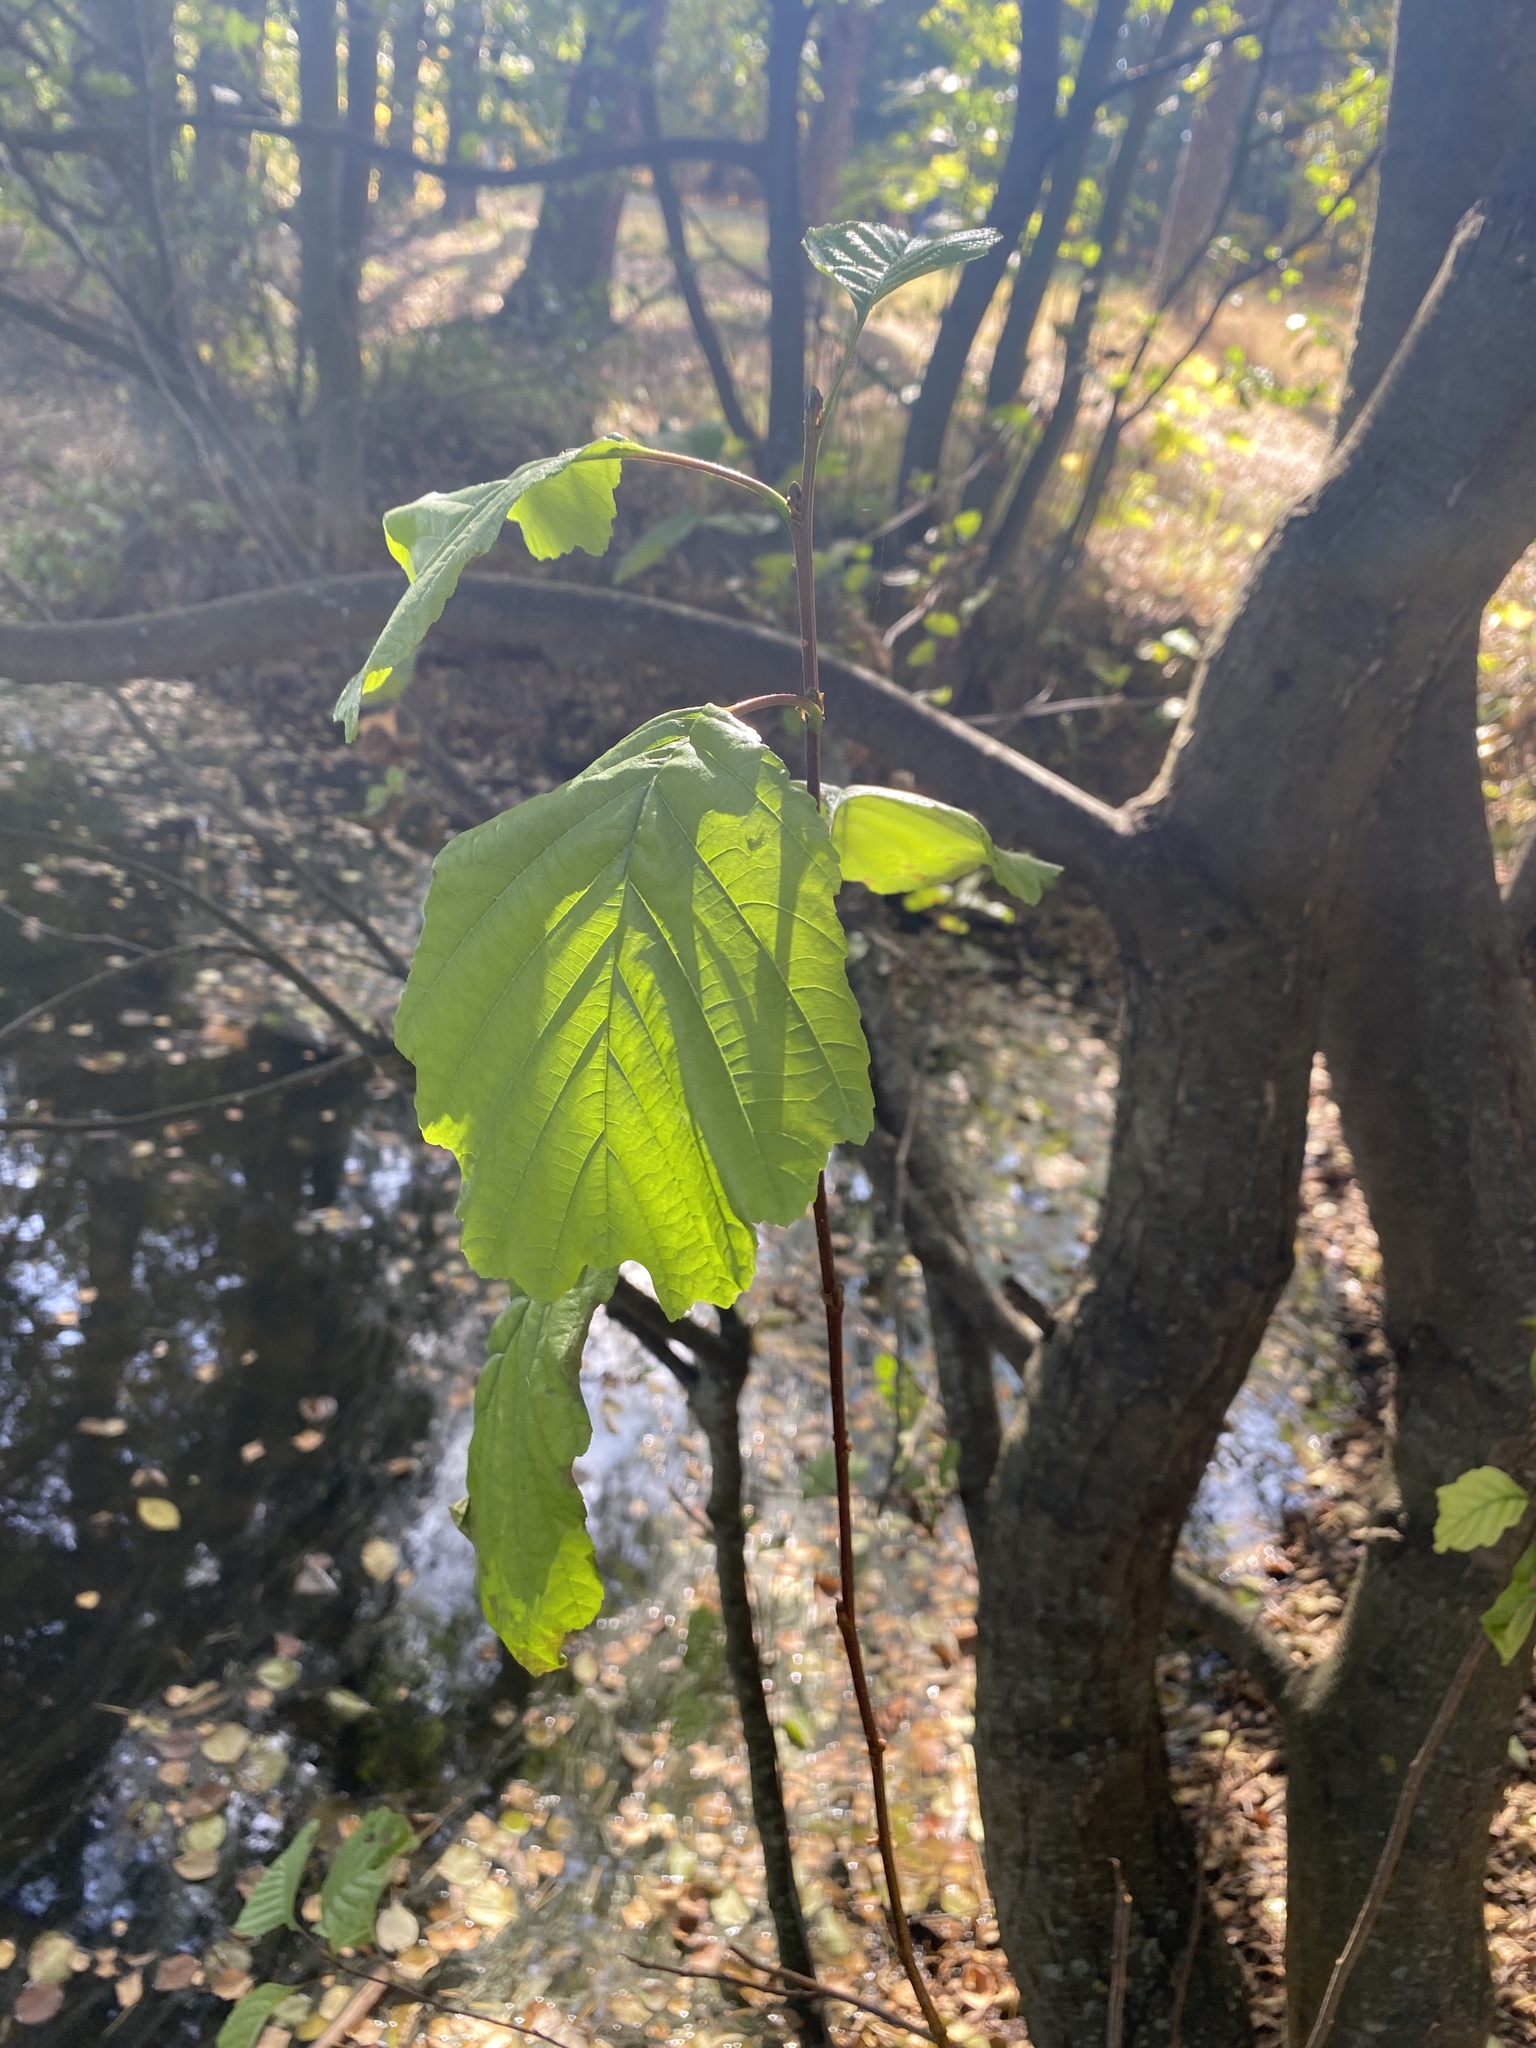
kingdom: Plantae
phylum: Tracheophyta
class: Magnoliopsida
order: Fagales
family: Betulaceae
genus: Alnus
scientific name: Alnus glutinosa
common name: Black alder
